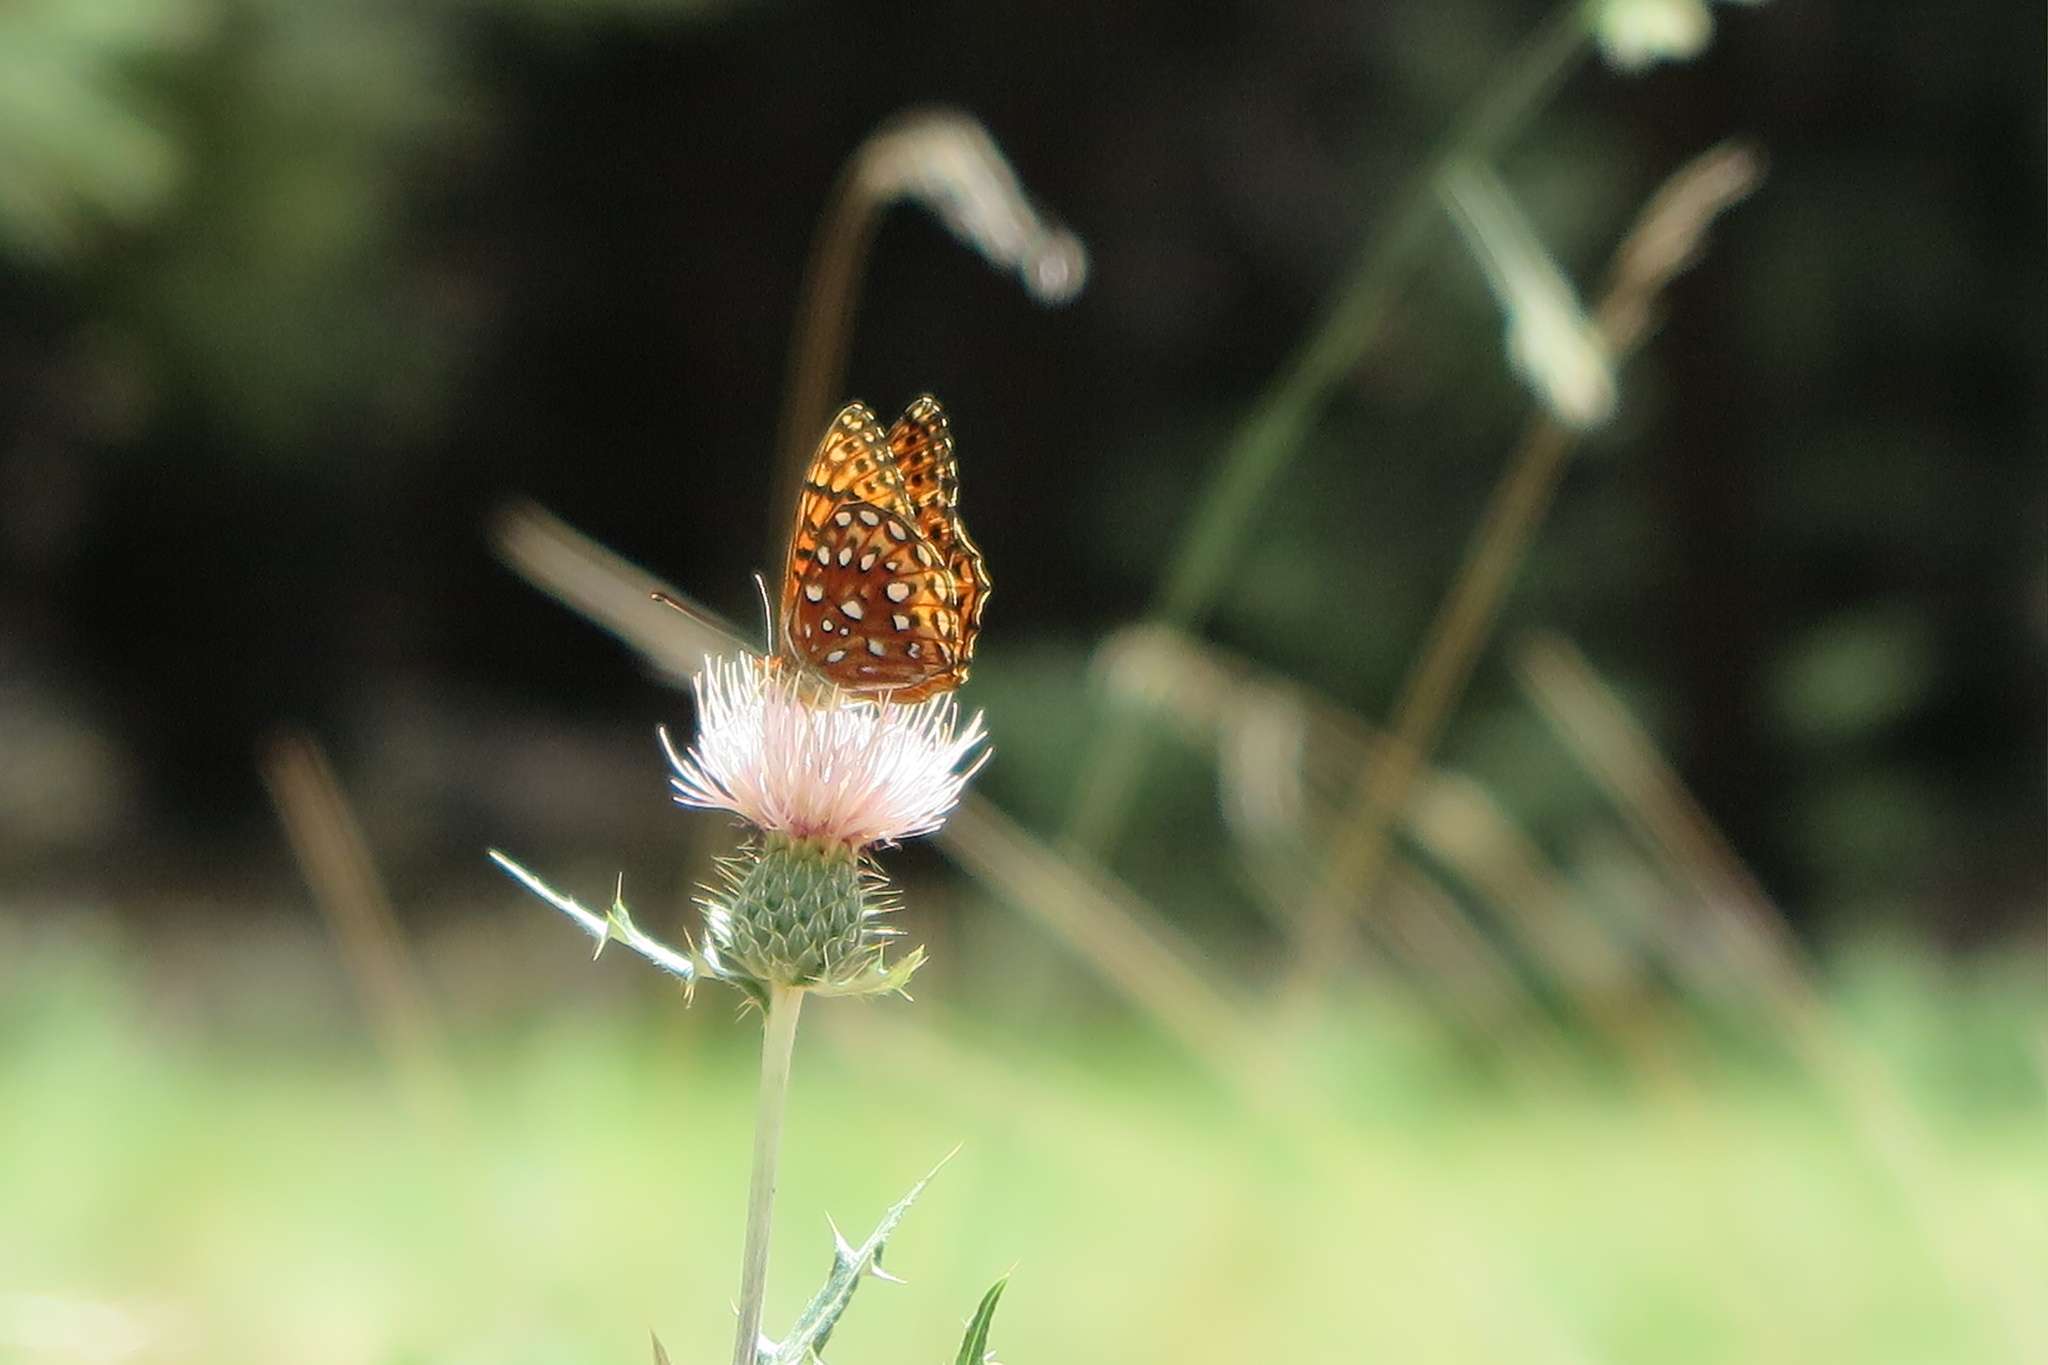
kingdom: Animalia
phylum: Arthropoda
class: Insecta
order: Lepidoptera
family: Nymphalidae
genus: Speyeria
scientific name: Speyeria atlantis
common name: Atlantis fritillary
